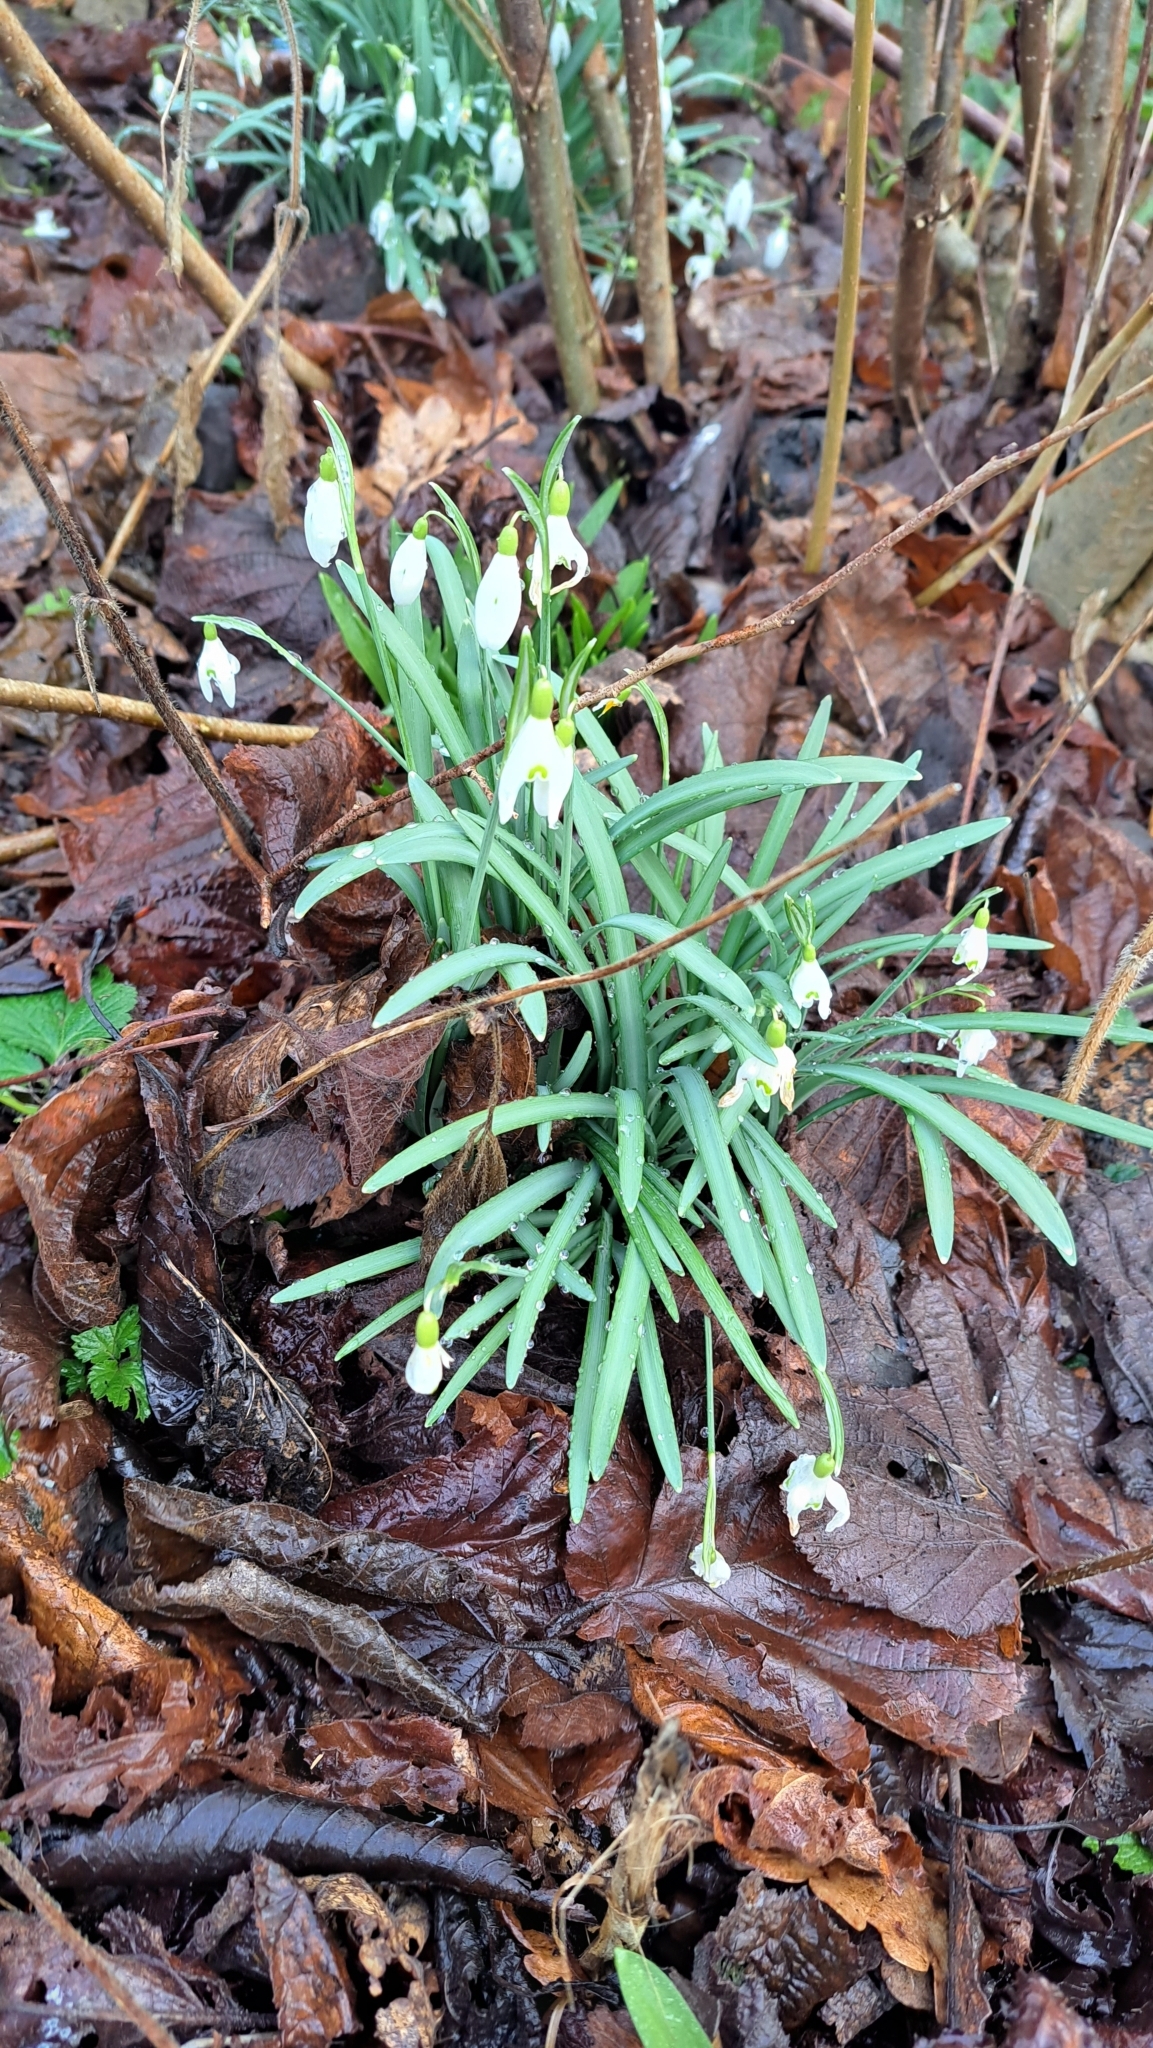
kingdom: Plantae
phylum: Tracheophyta
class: Liliopsida
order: Asparagales
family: Amaryllidaceae
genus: Galanthus
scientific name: Galanthus nivalis
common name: Snowdrop
